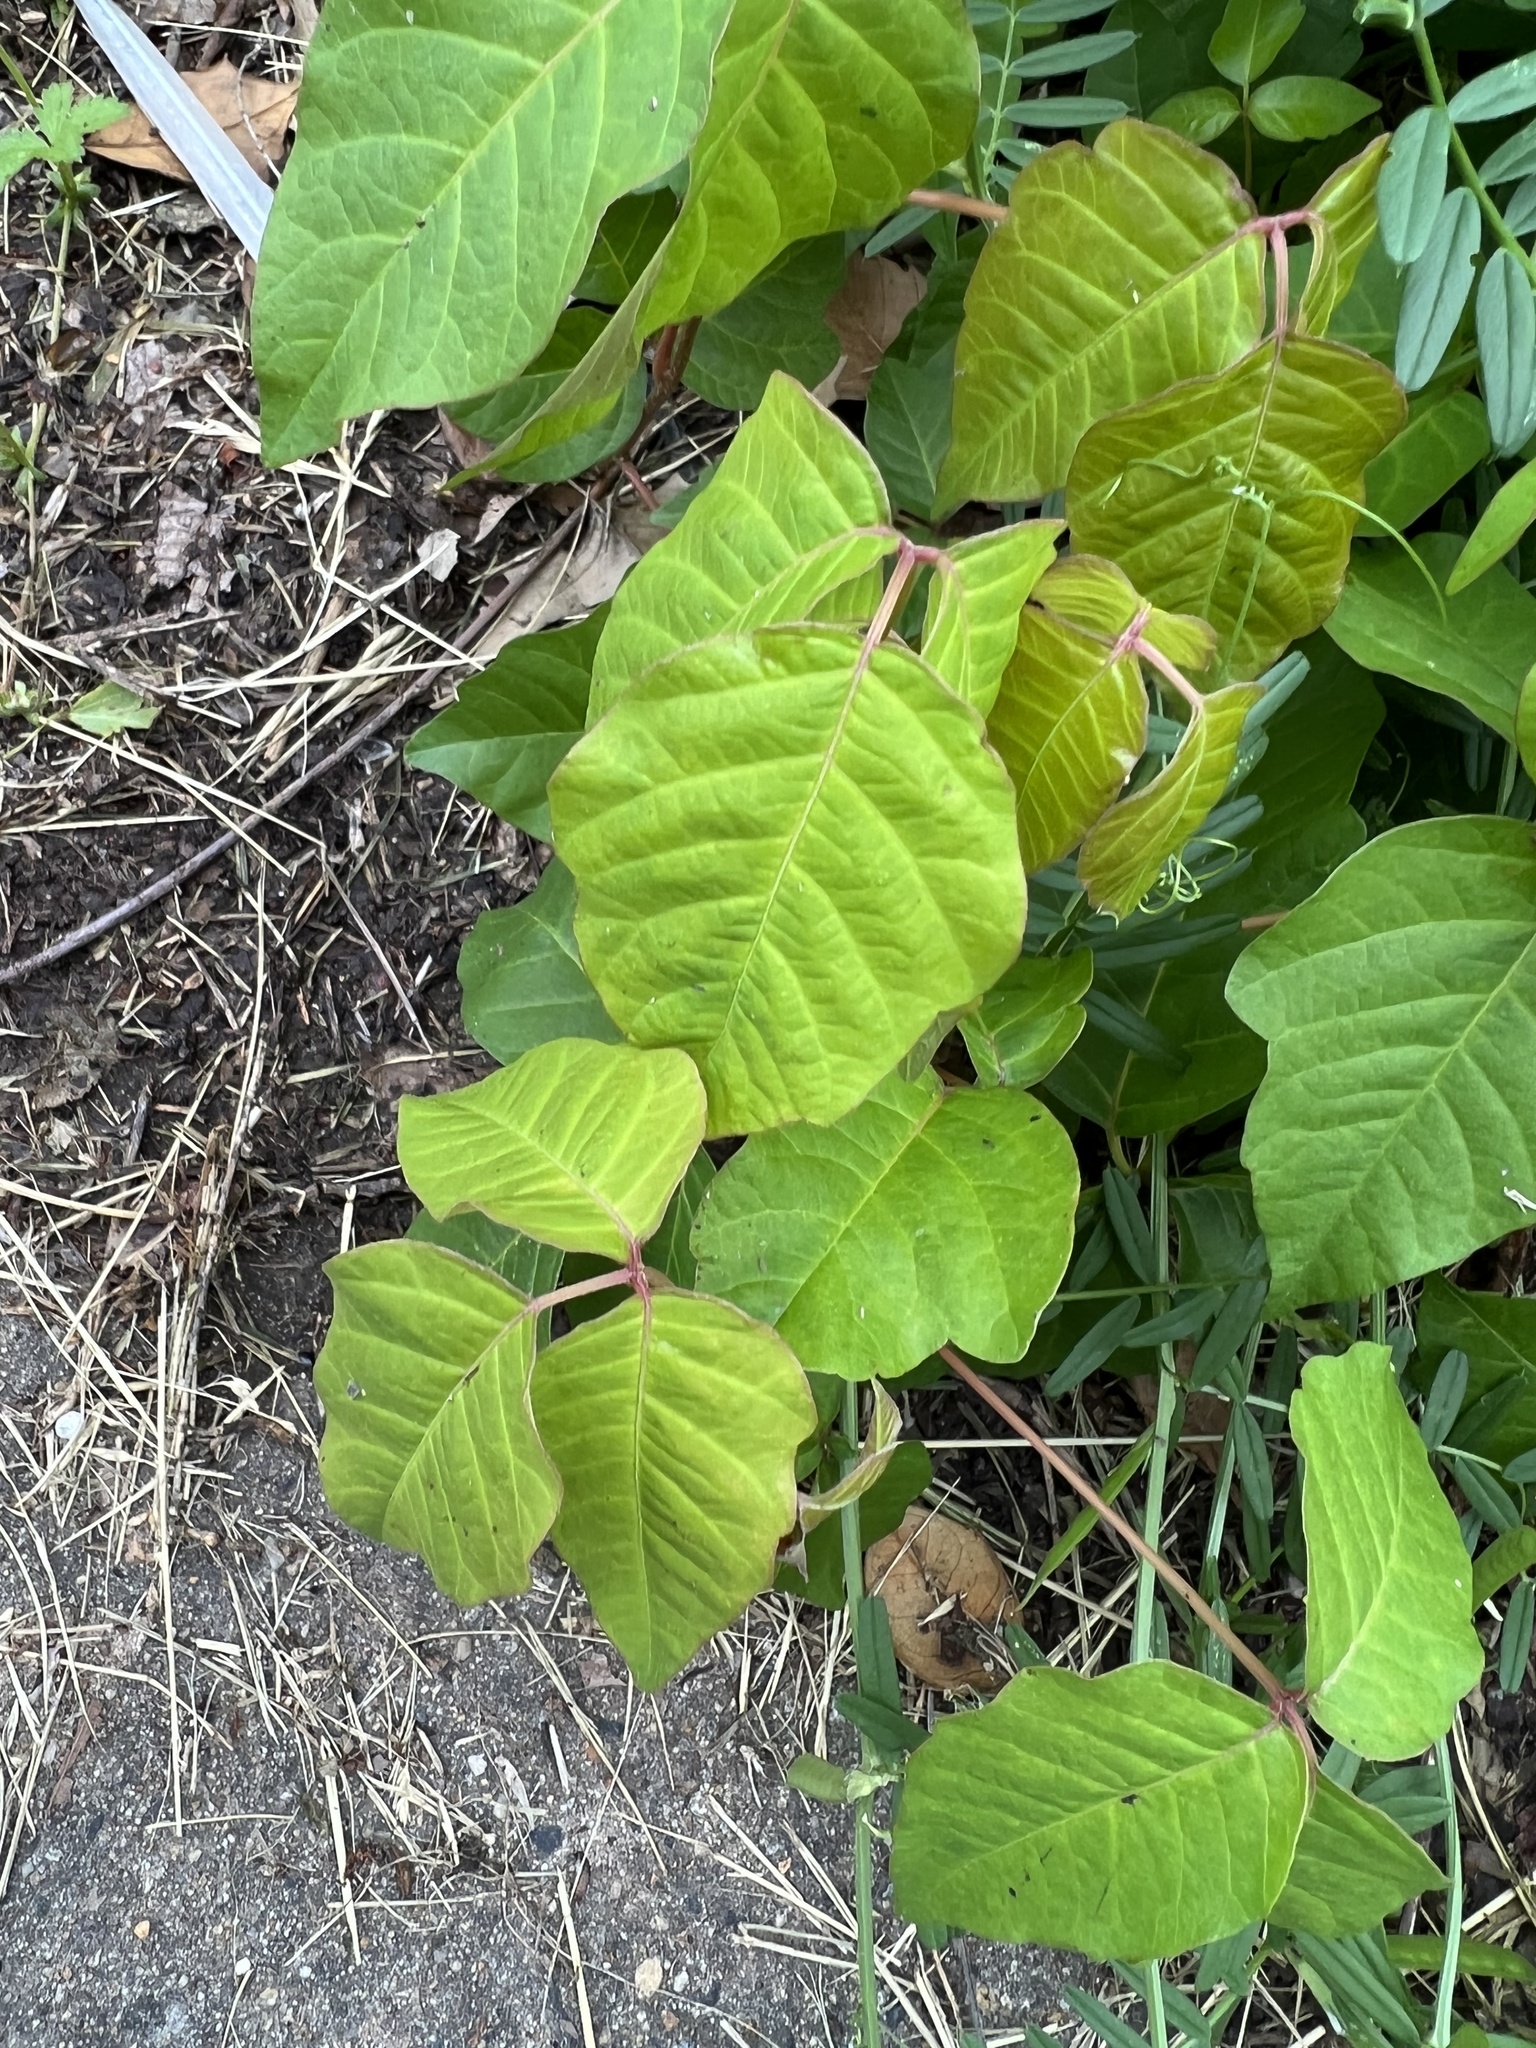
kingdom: Plantae
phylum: Tracheophyta
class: Magnoliopsida
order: Sapindales
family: Anacardiaceae
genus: Toxicodendron
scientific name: Toxicodendron radicans
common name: Poison ivy
